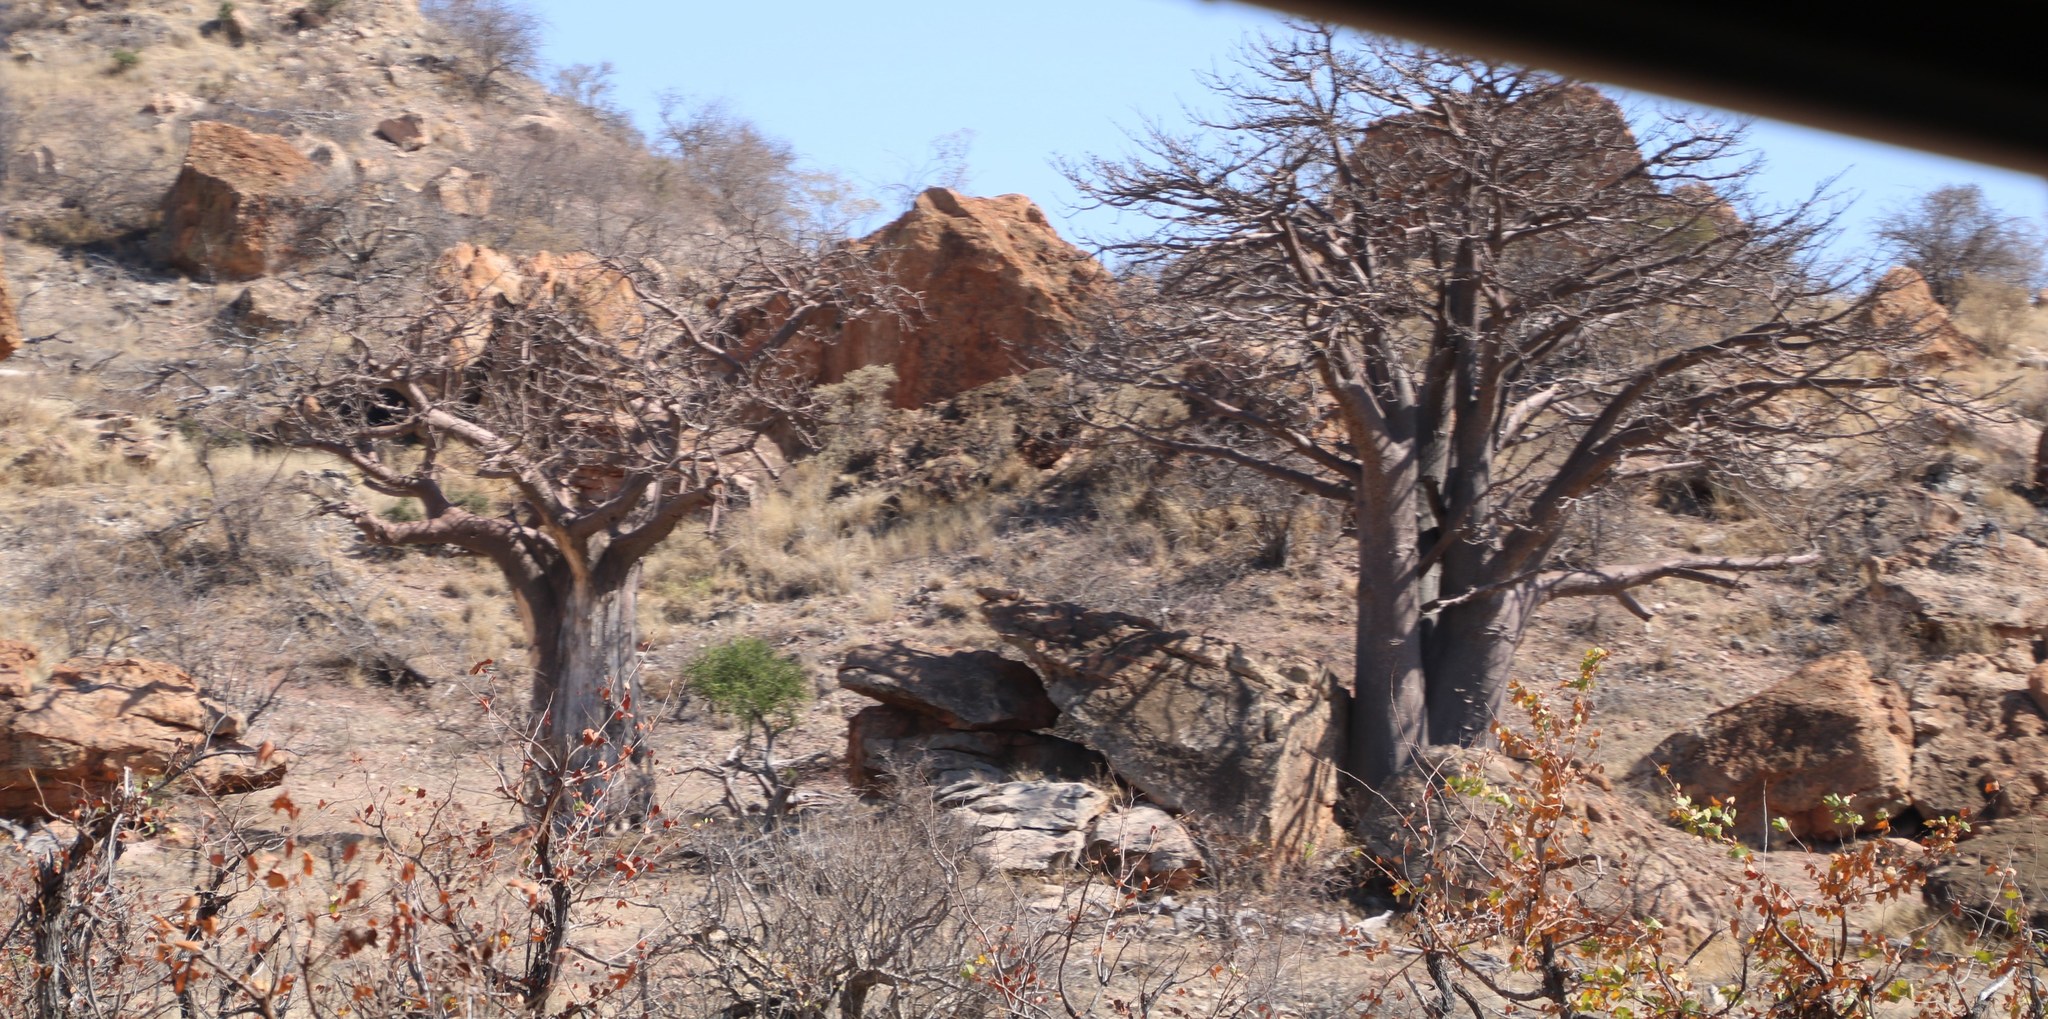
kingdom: Plantae
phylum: Tracheophyta
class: Magnoliopsida
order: Malvales
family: Malvaceae
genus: Adansonia
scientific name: Adansonia digitata
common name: Dead-rat-tree
